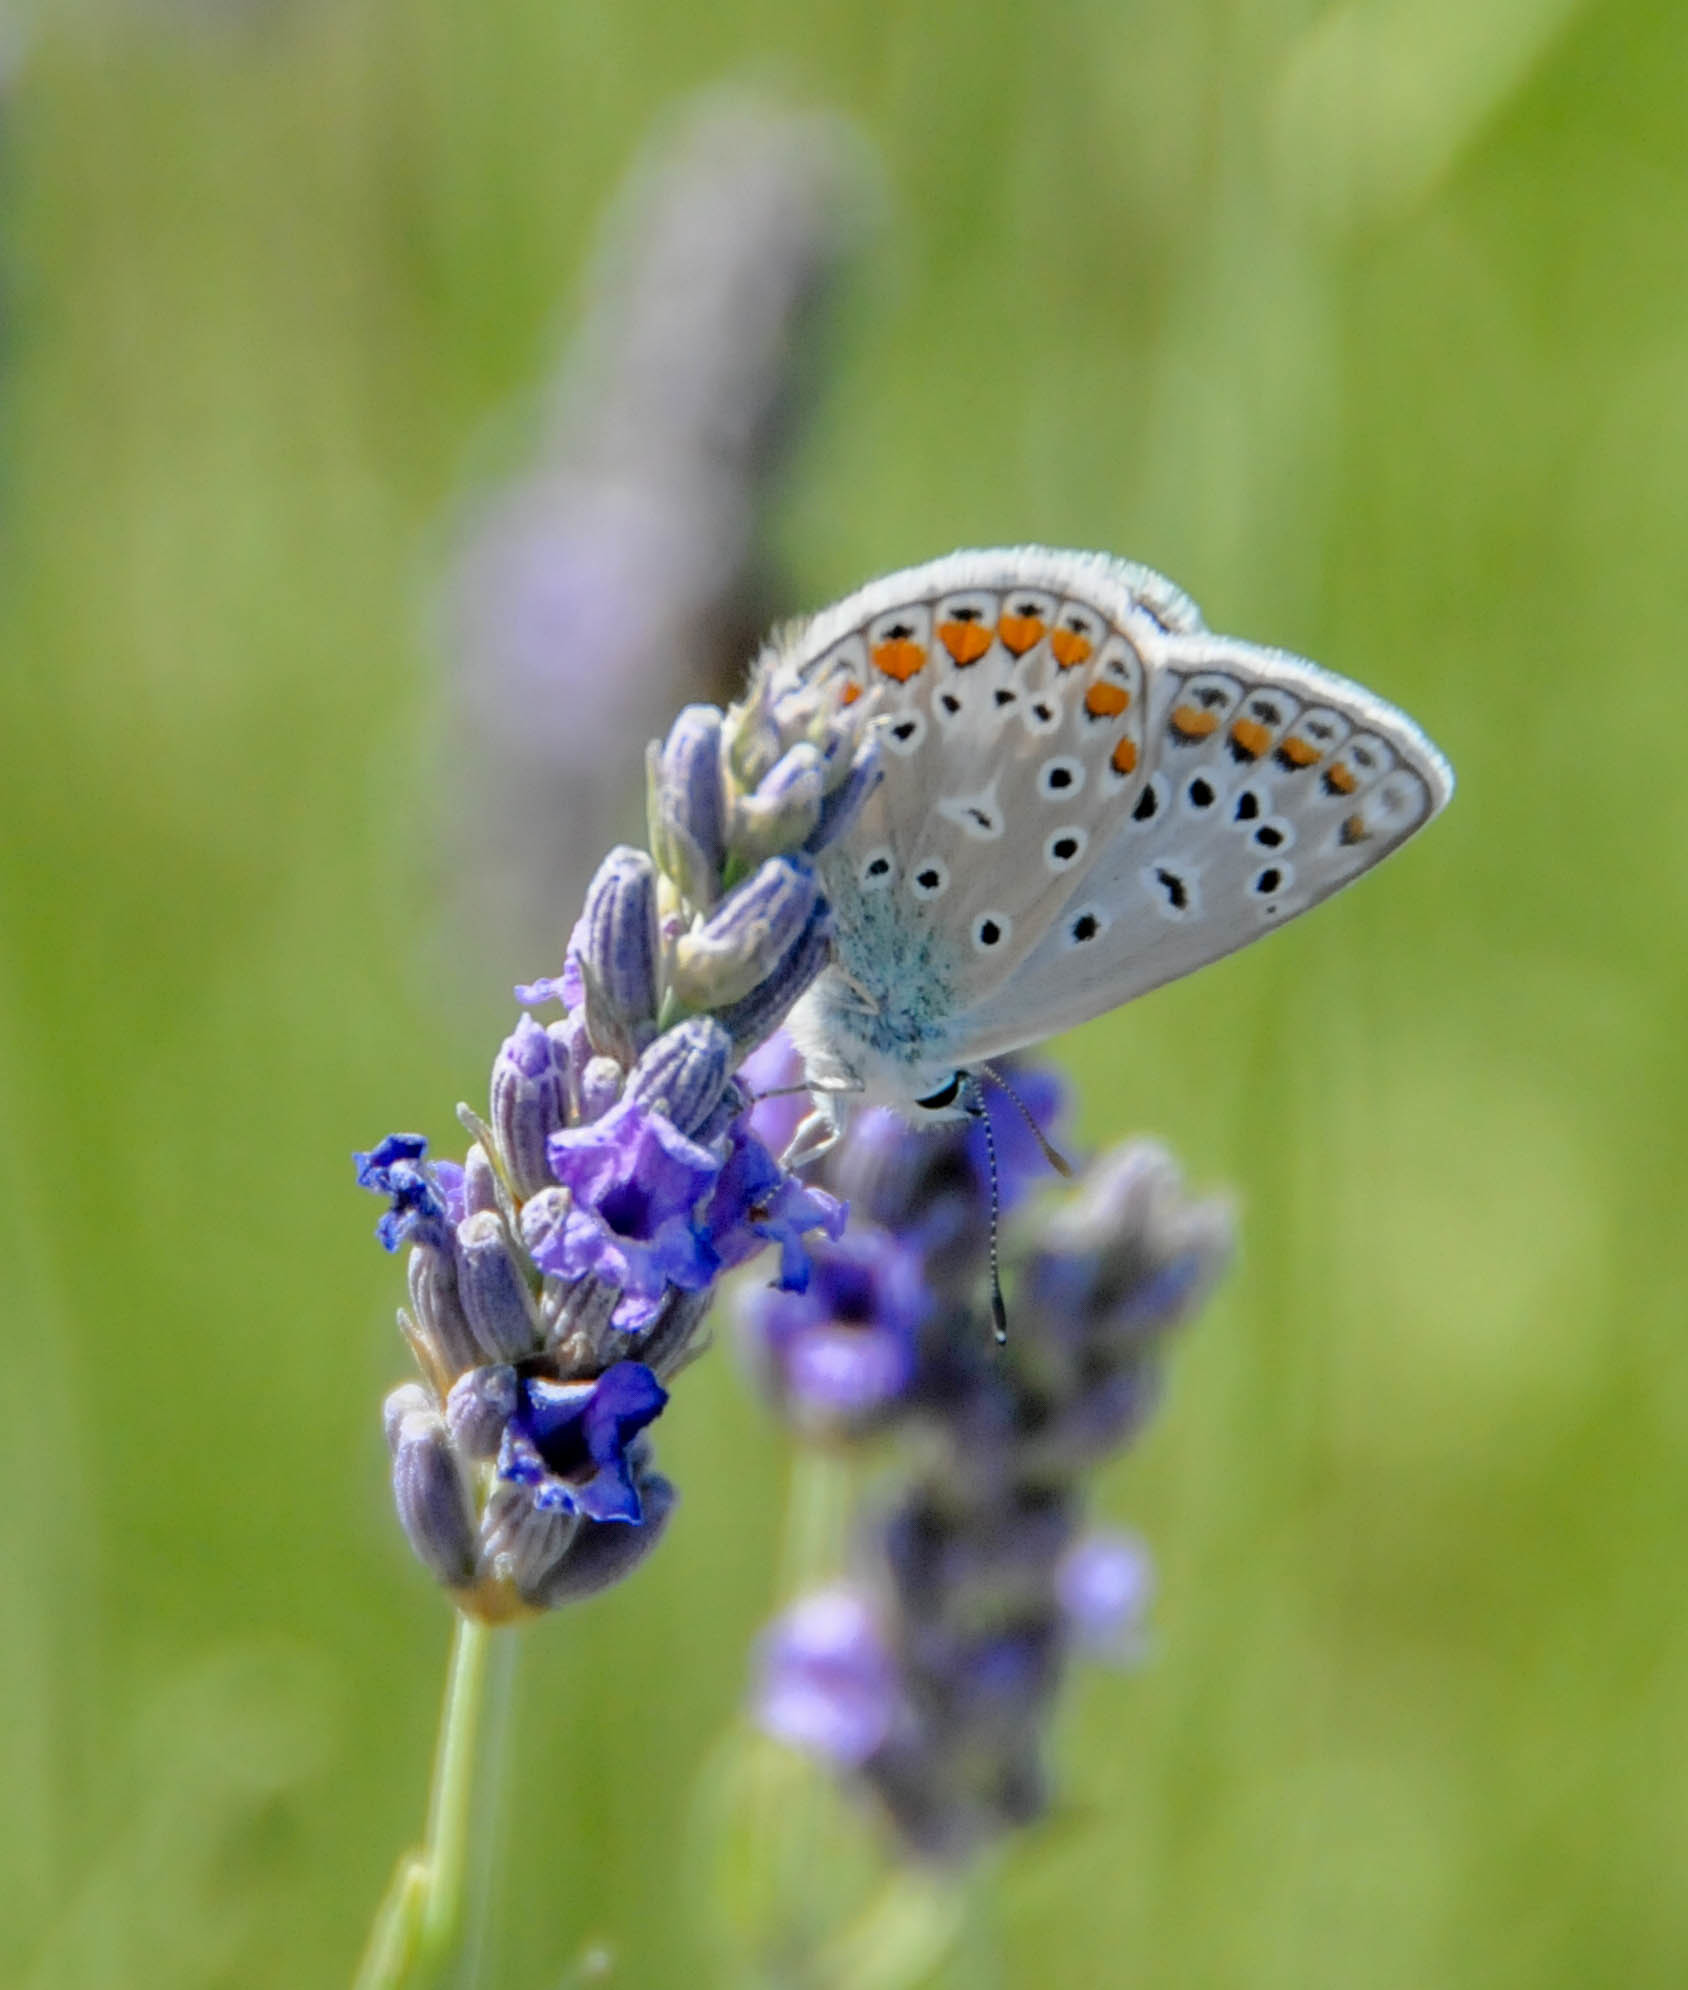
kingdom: Animalia
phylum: Arthropoda
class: Insecta
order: Lepidoptera
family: Lycaenidae
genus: Polyommatus
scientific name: Polyommatus icarus
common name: Common blue
